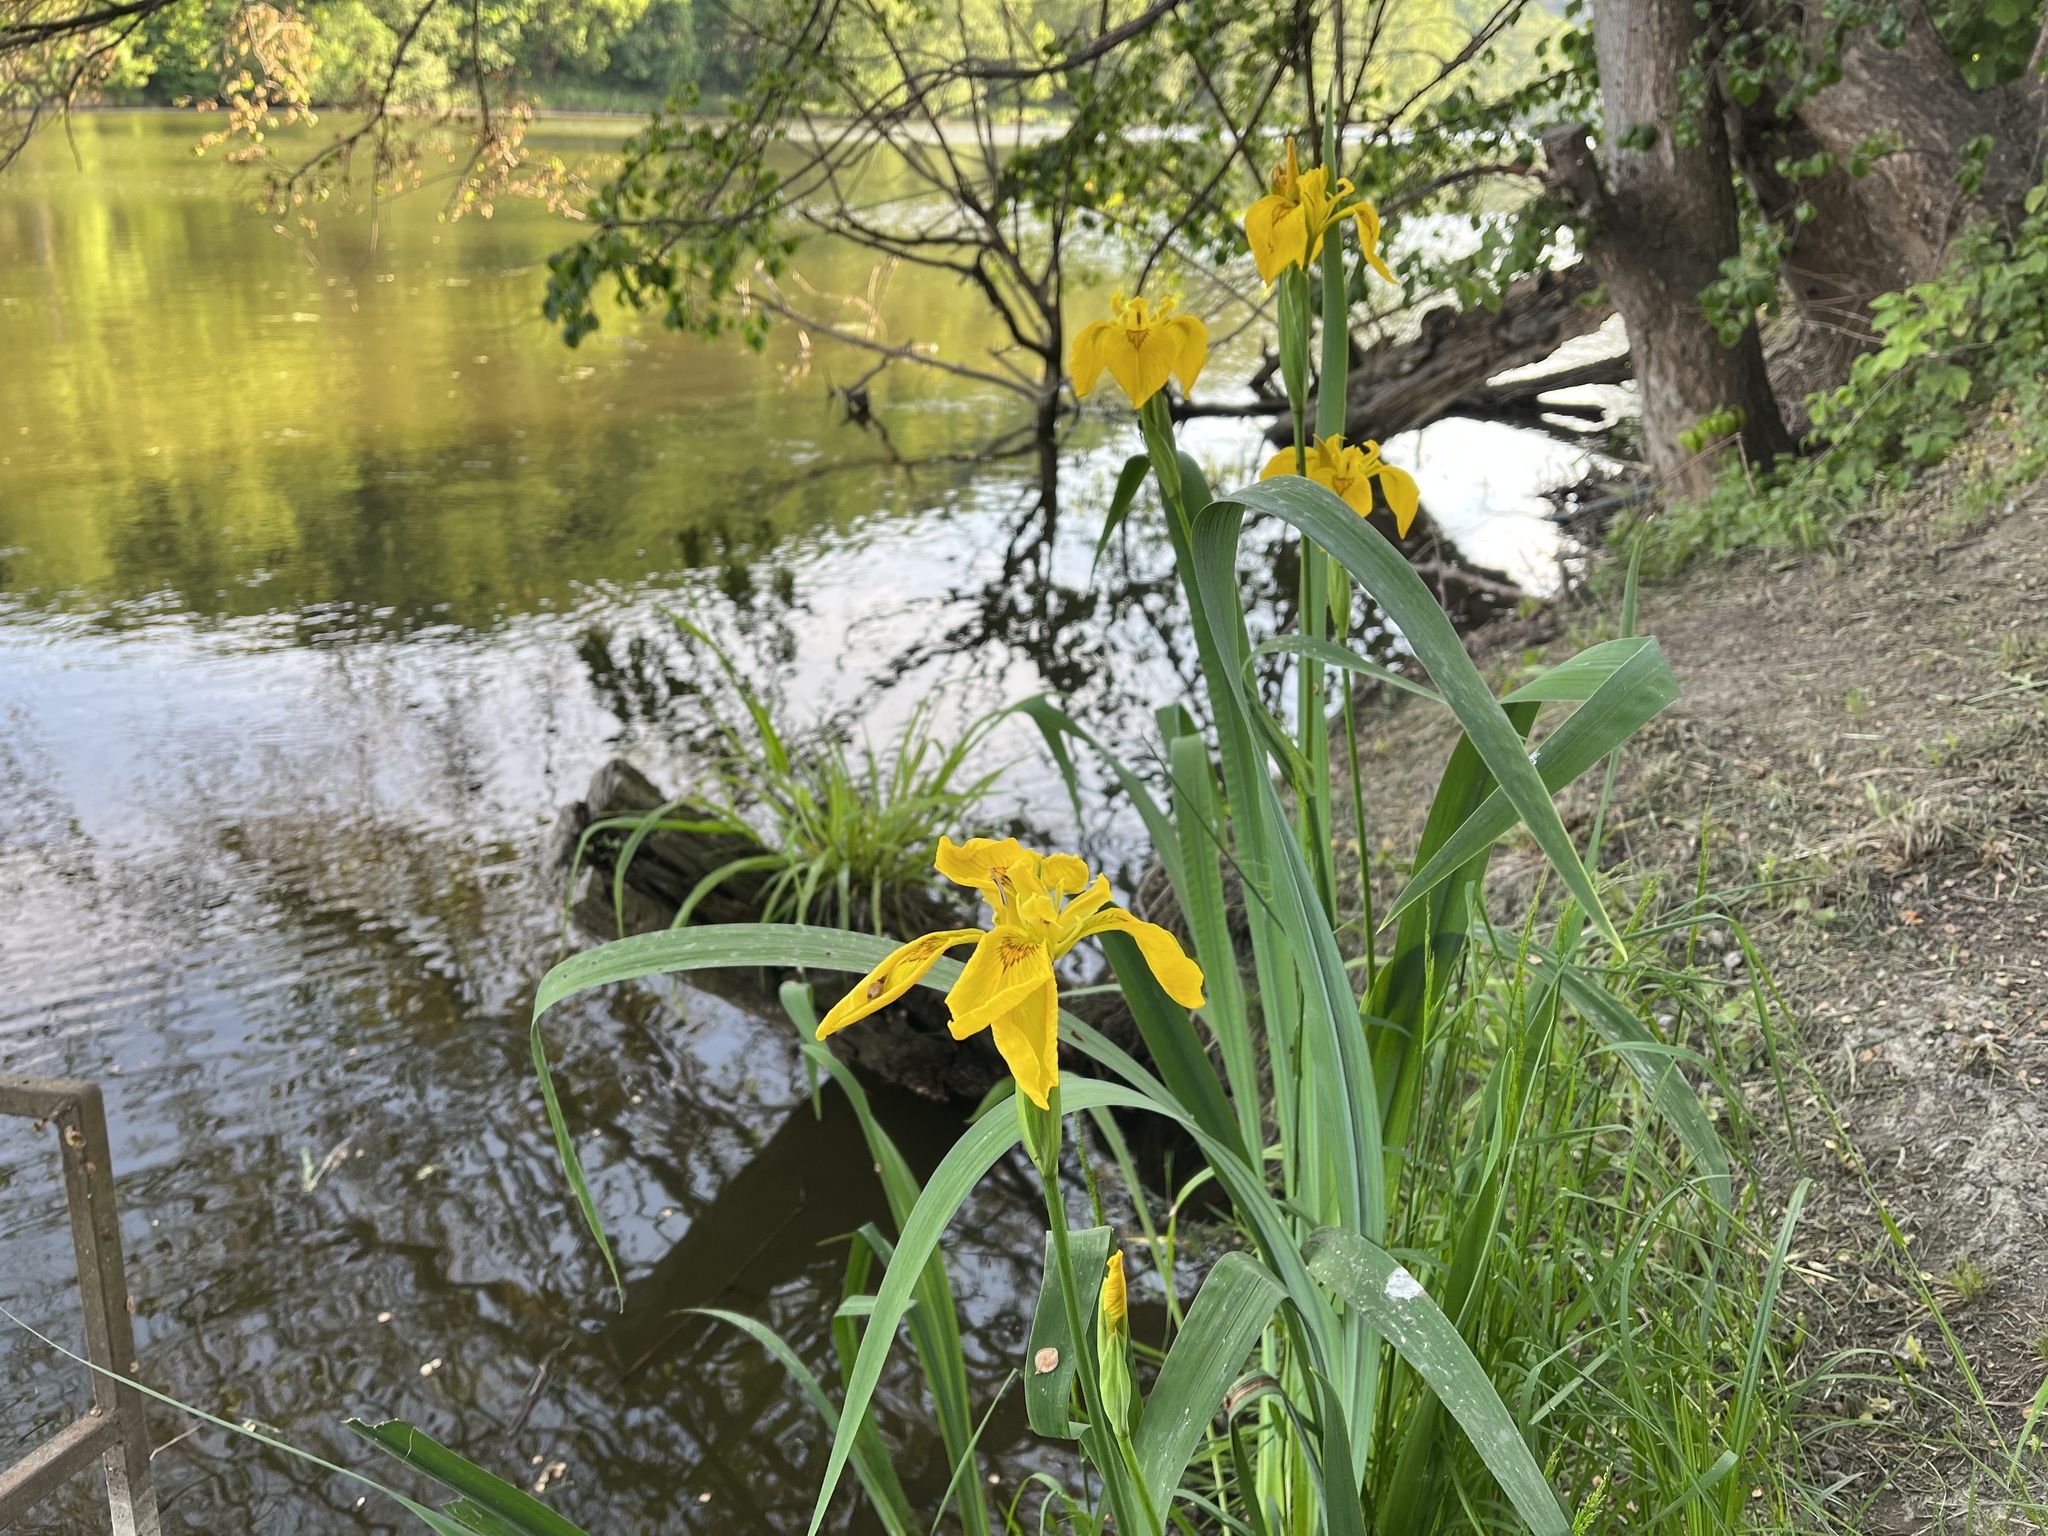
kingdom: Plantae
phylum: Tracheophyta
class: Liliopsida
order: Asparagales
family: Iridaceae
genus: Iris
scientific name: Iris pseudacorus
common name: Yellow flag
